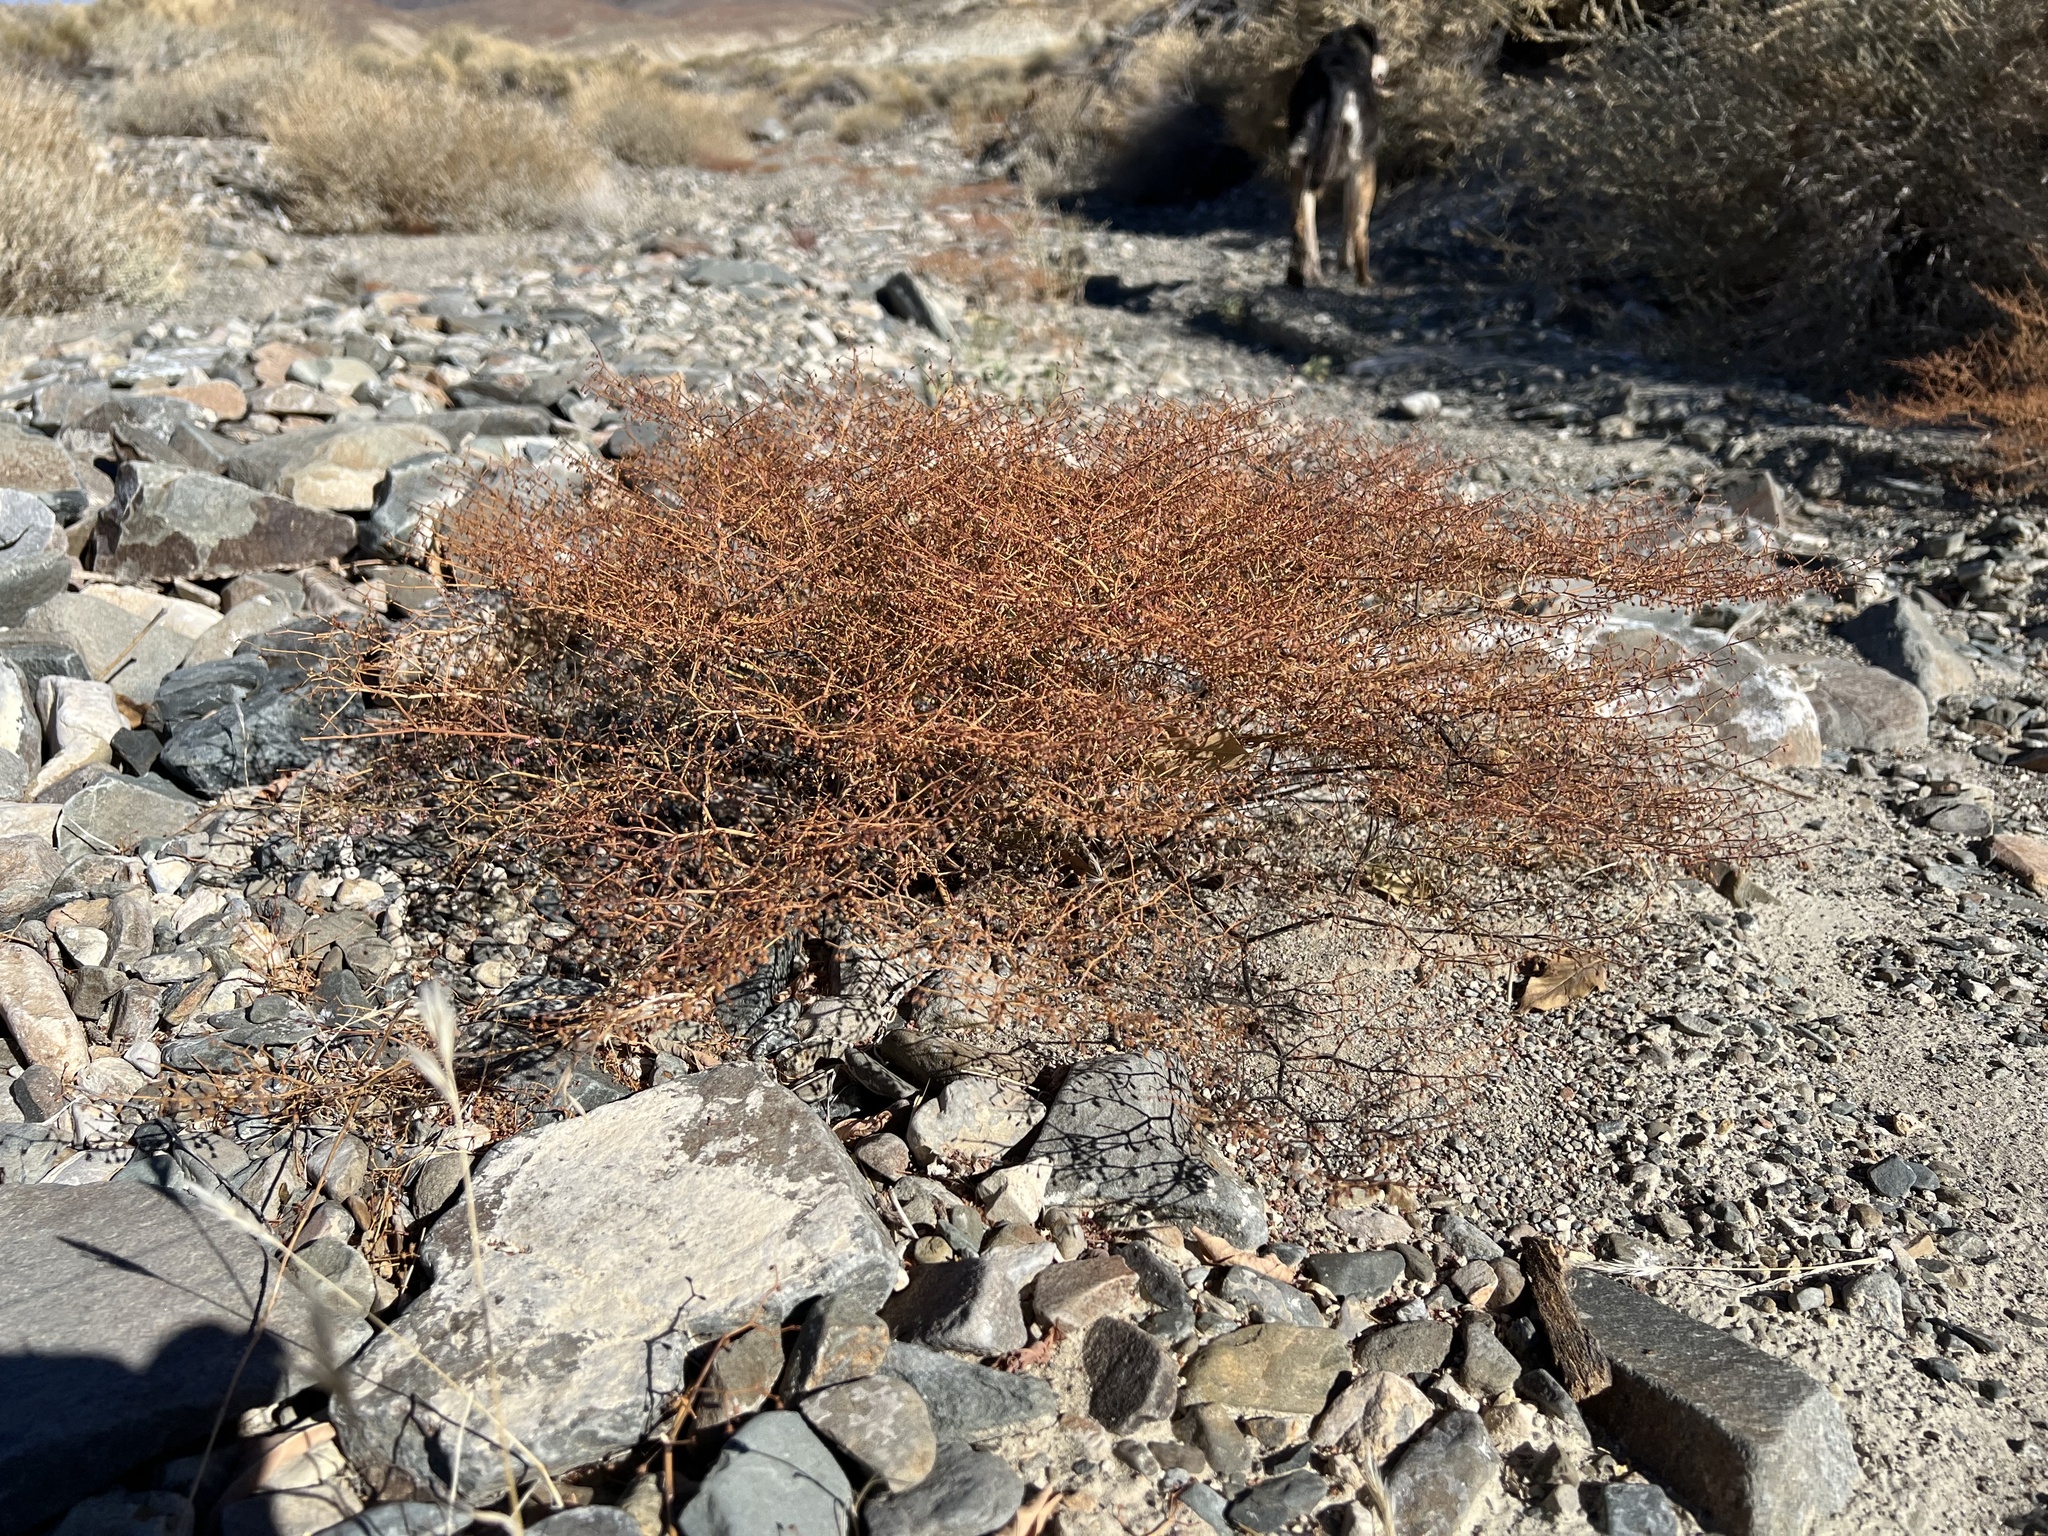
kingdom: Plantae
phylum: Tracheophyta
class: Magnoliopsida
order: Caryophyllales
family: Polygonaceae
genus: Eriogonum
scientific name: Eriogonum brachypodum
